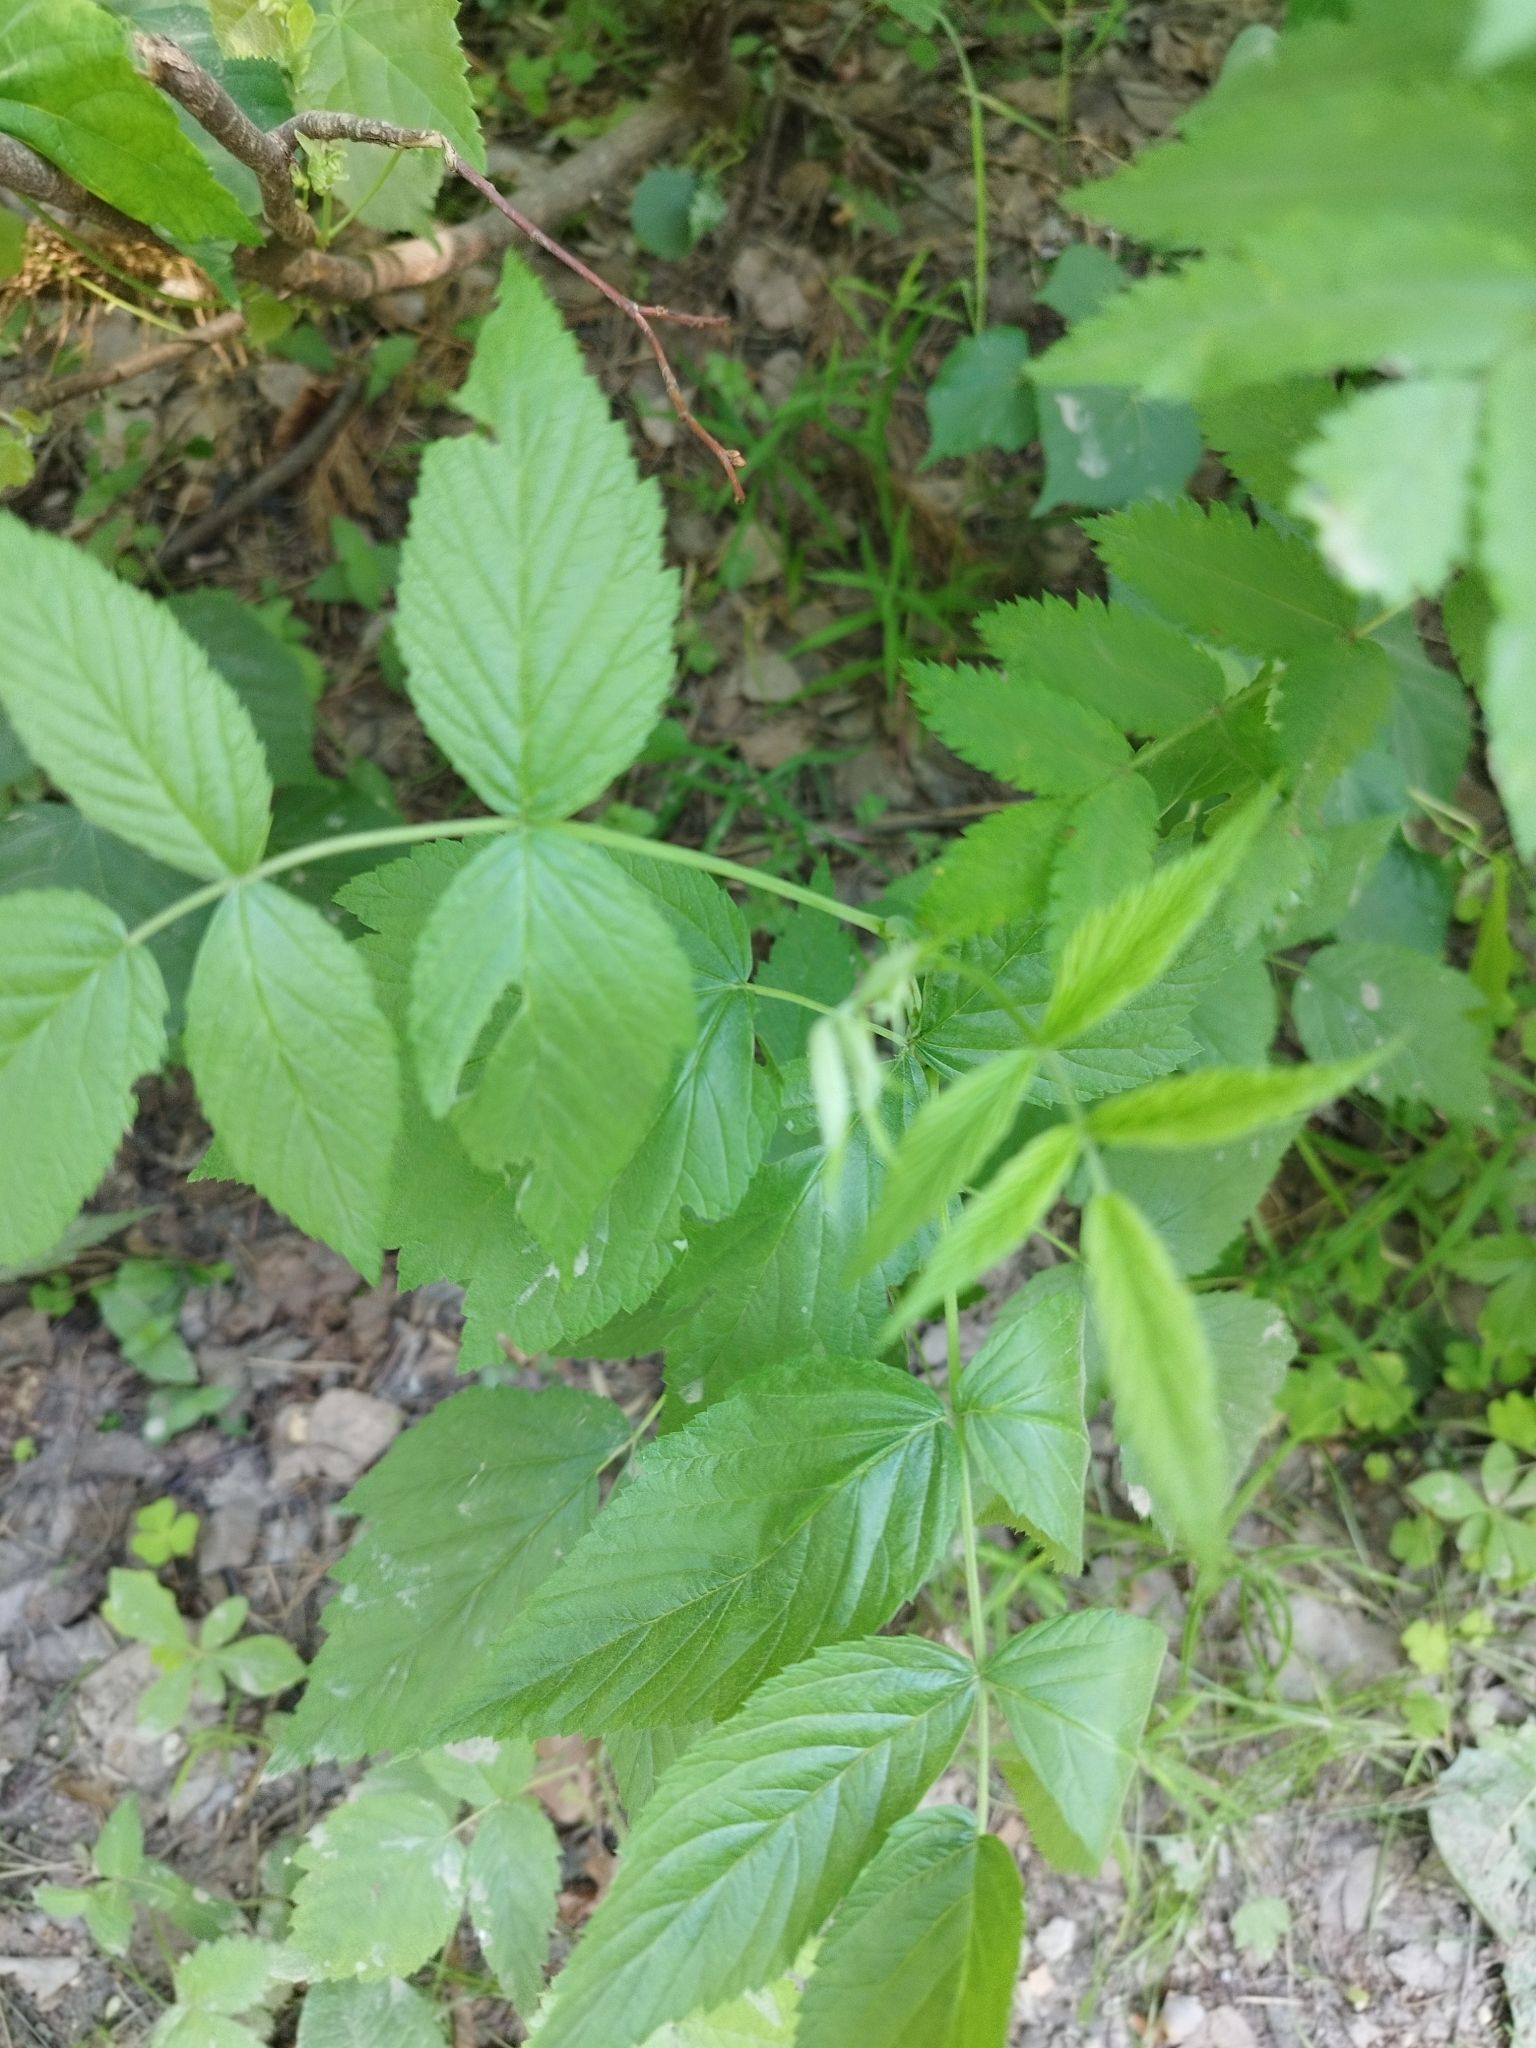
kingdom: Plantae
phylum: Tracheophyta
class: Magnoliopsida
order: Rosales
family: Rosaceae
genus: Rubus
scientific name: Rubus idaeus
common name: Raspberry
